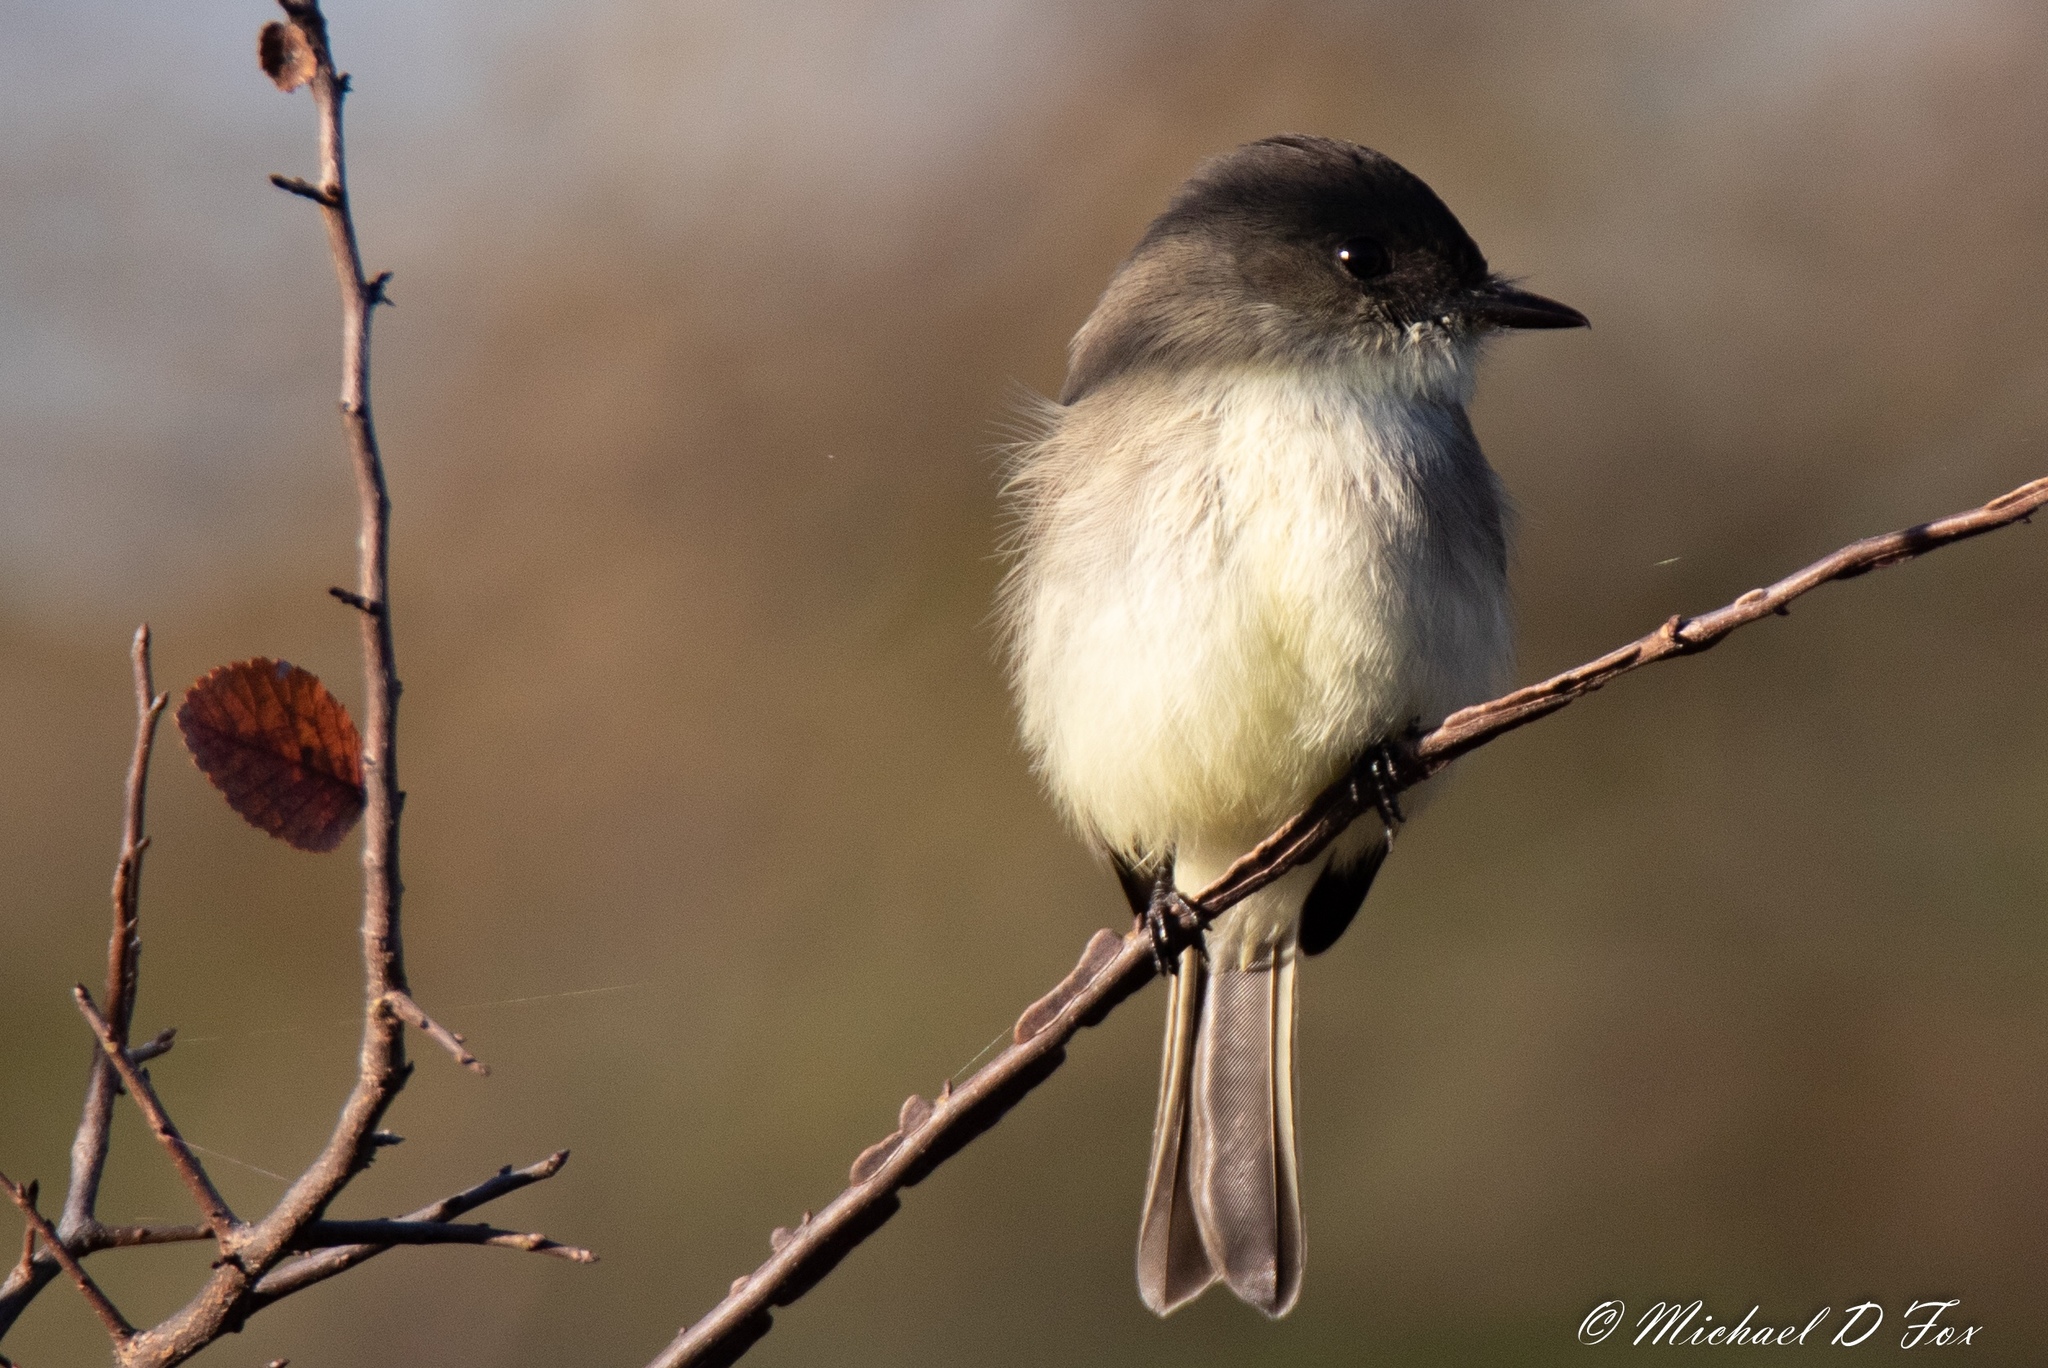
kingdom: Animalia
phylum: Chordata
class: Aves
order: Passeriformes
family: Tyrannidae
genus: Sayornis
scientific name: Sayornis phoebe
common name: Eastern phoebe
